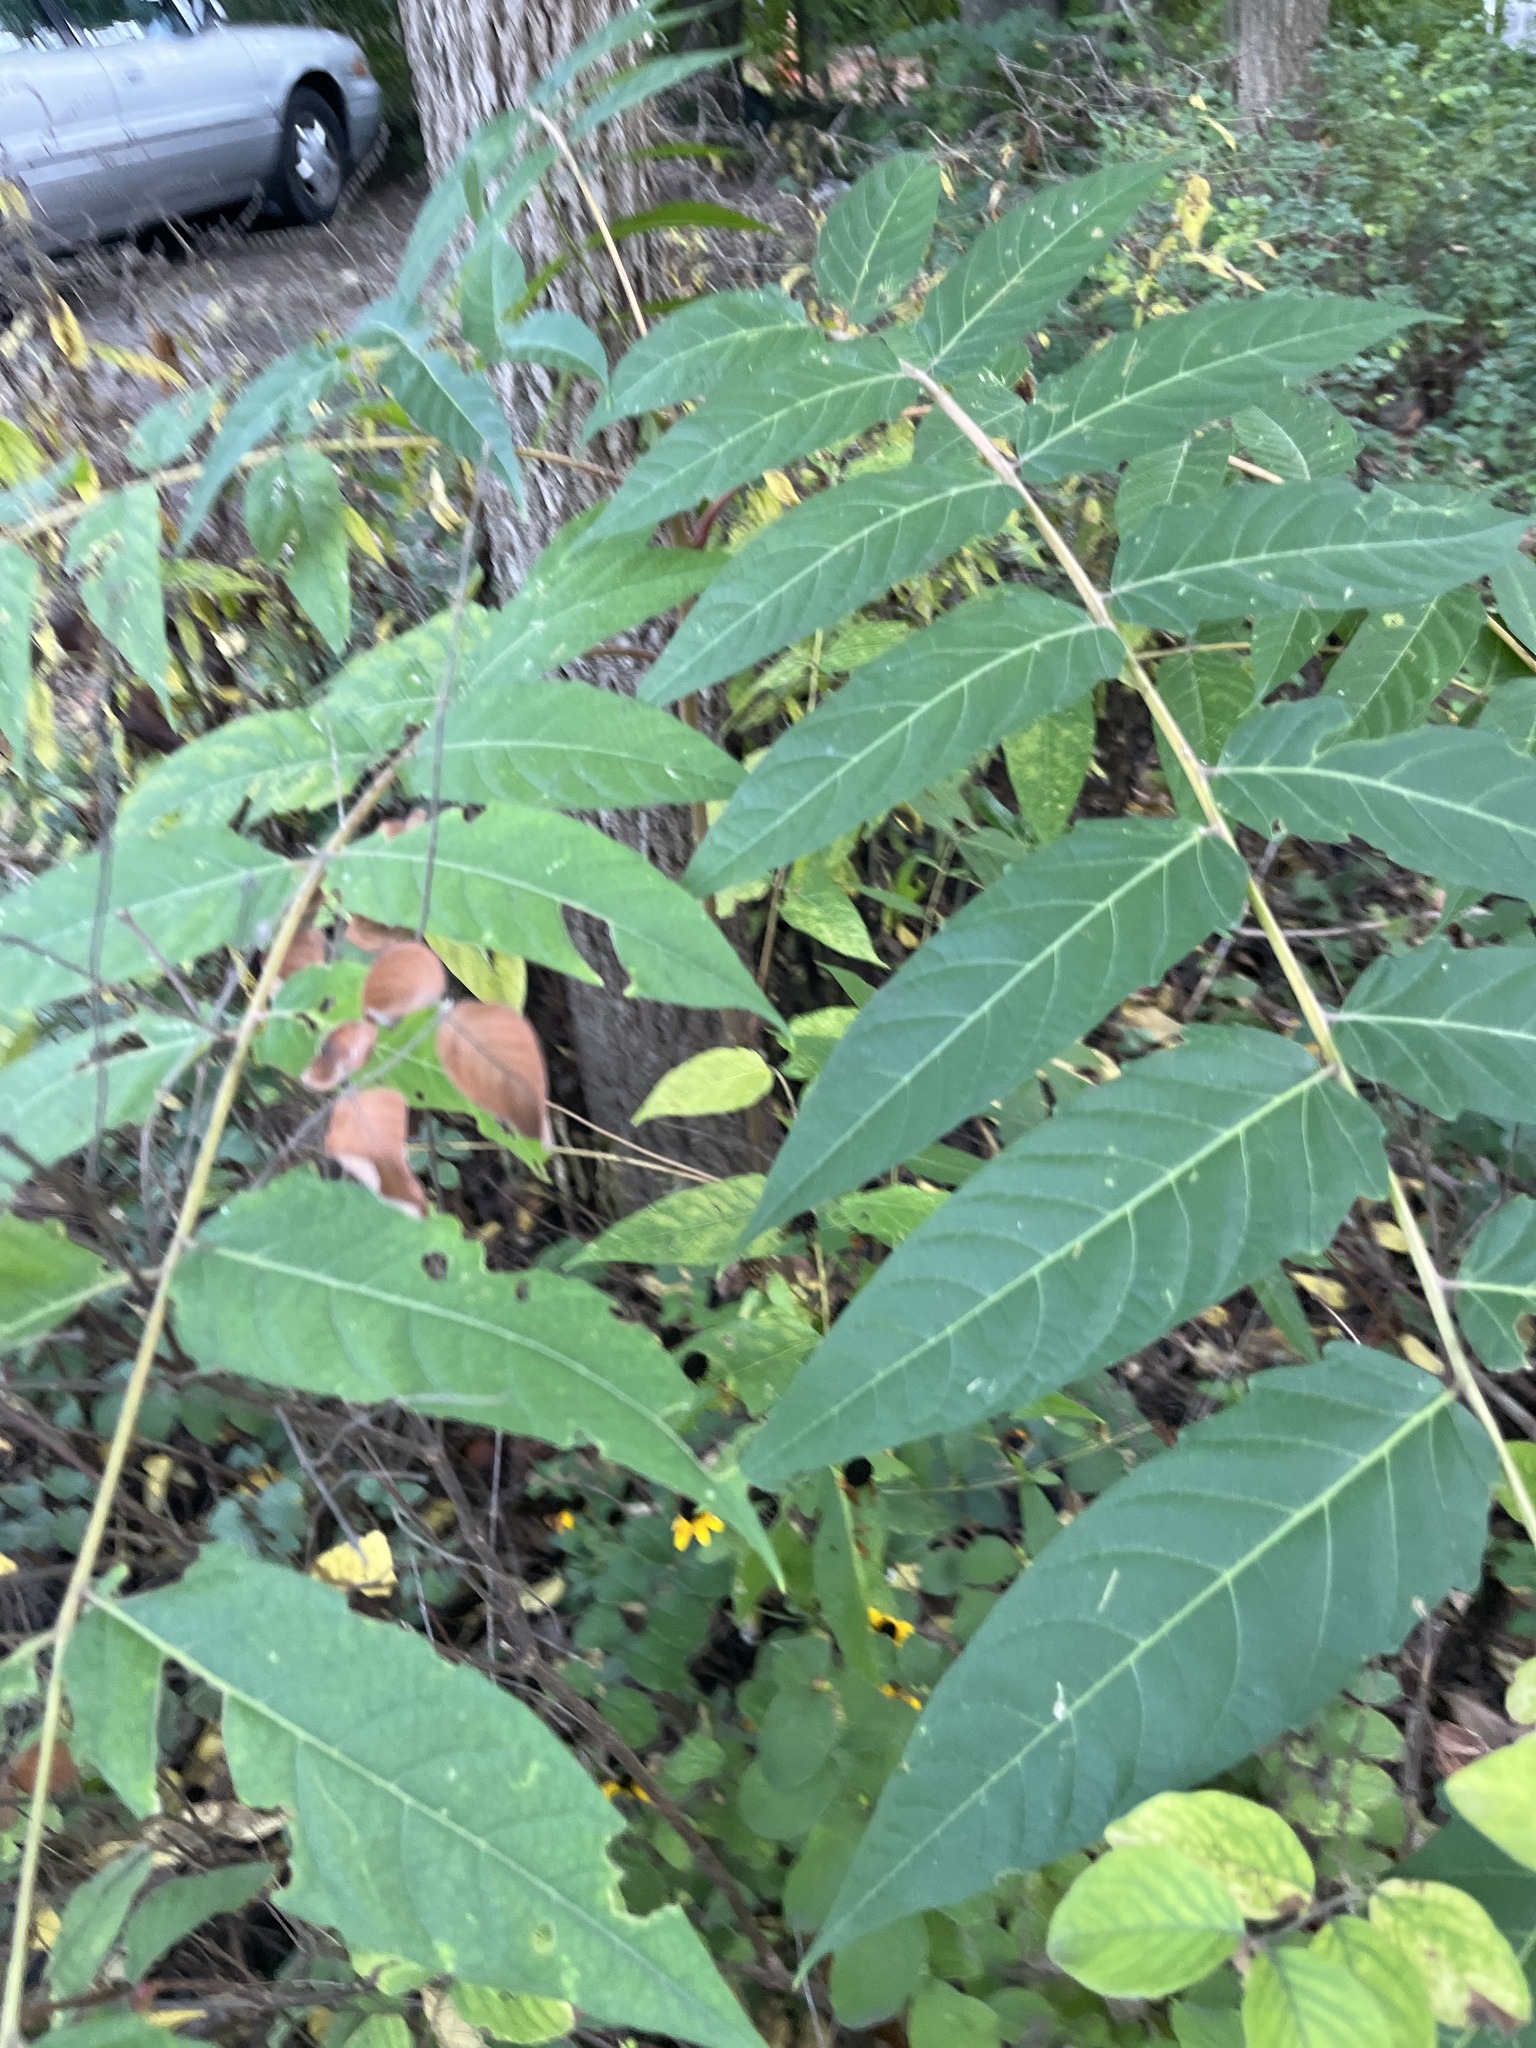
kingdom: Plantae
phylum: Tracheophyta
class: Magnoliopsida
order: Sapindales
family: Simaroubaceae
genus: Ailanthus
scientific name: Ailanthus altissima
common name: Tree-of-heaven
